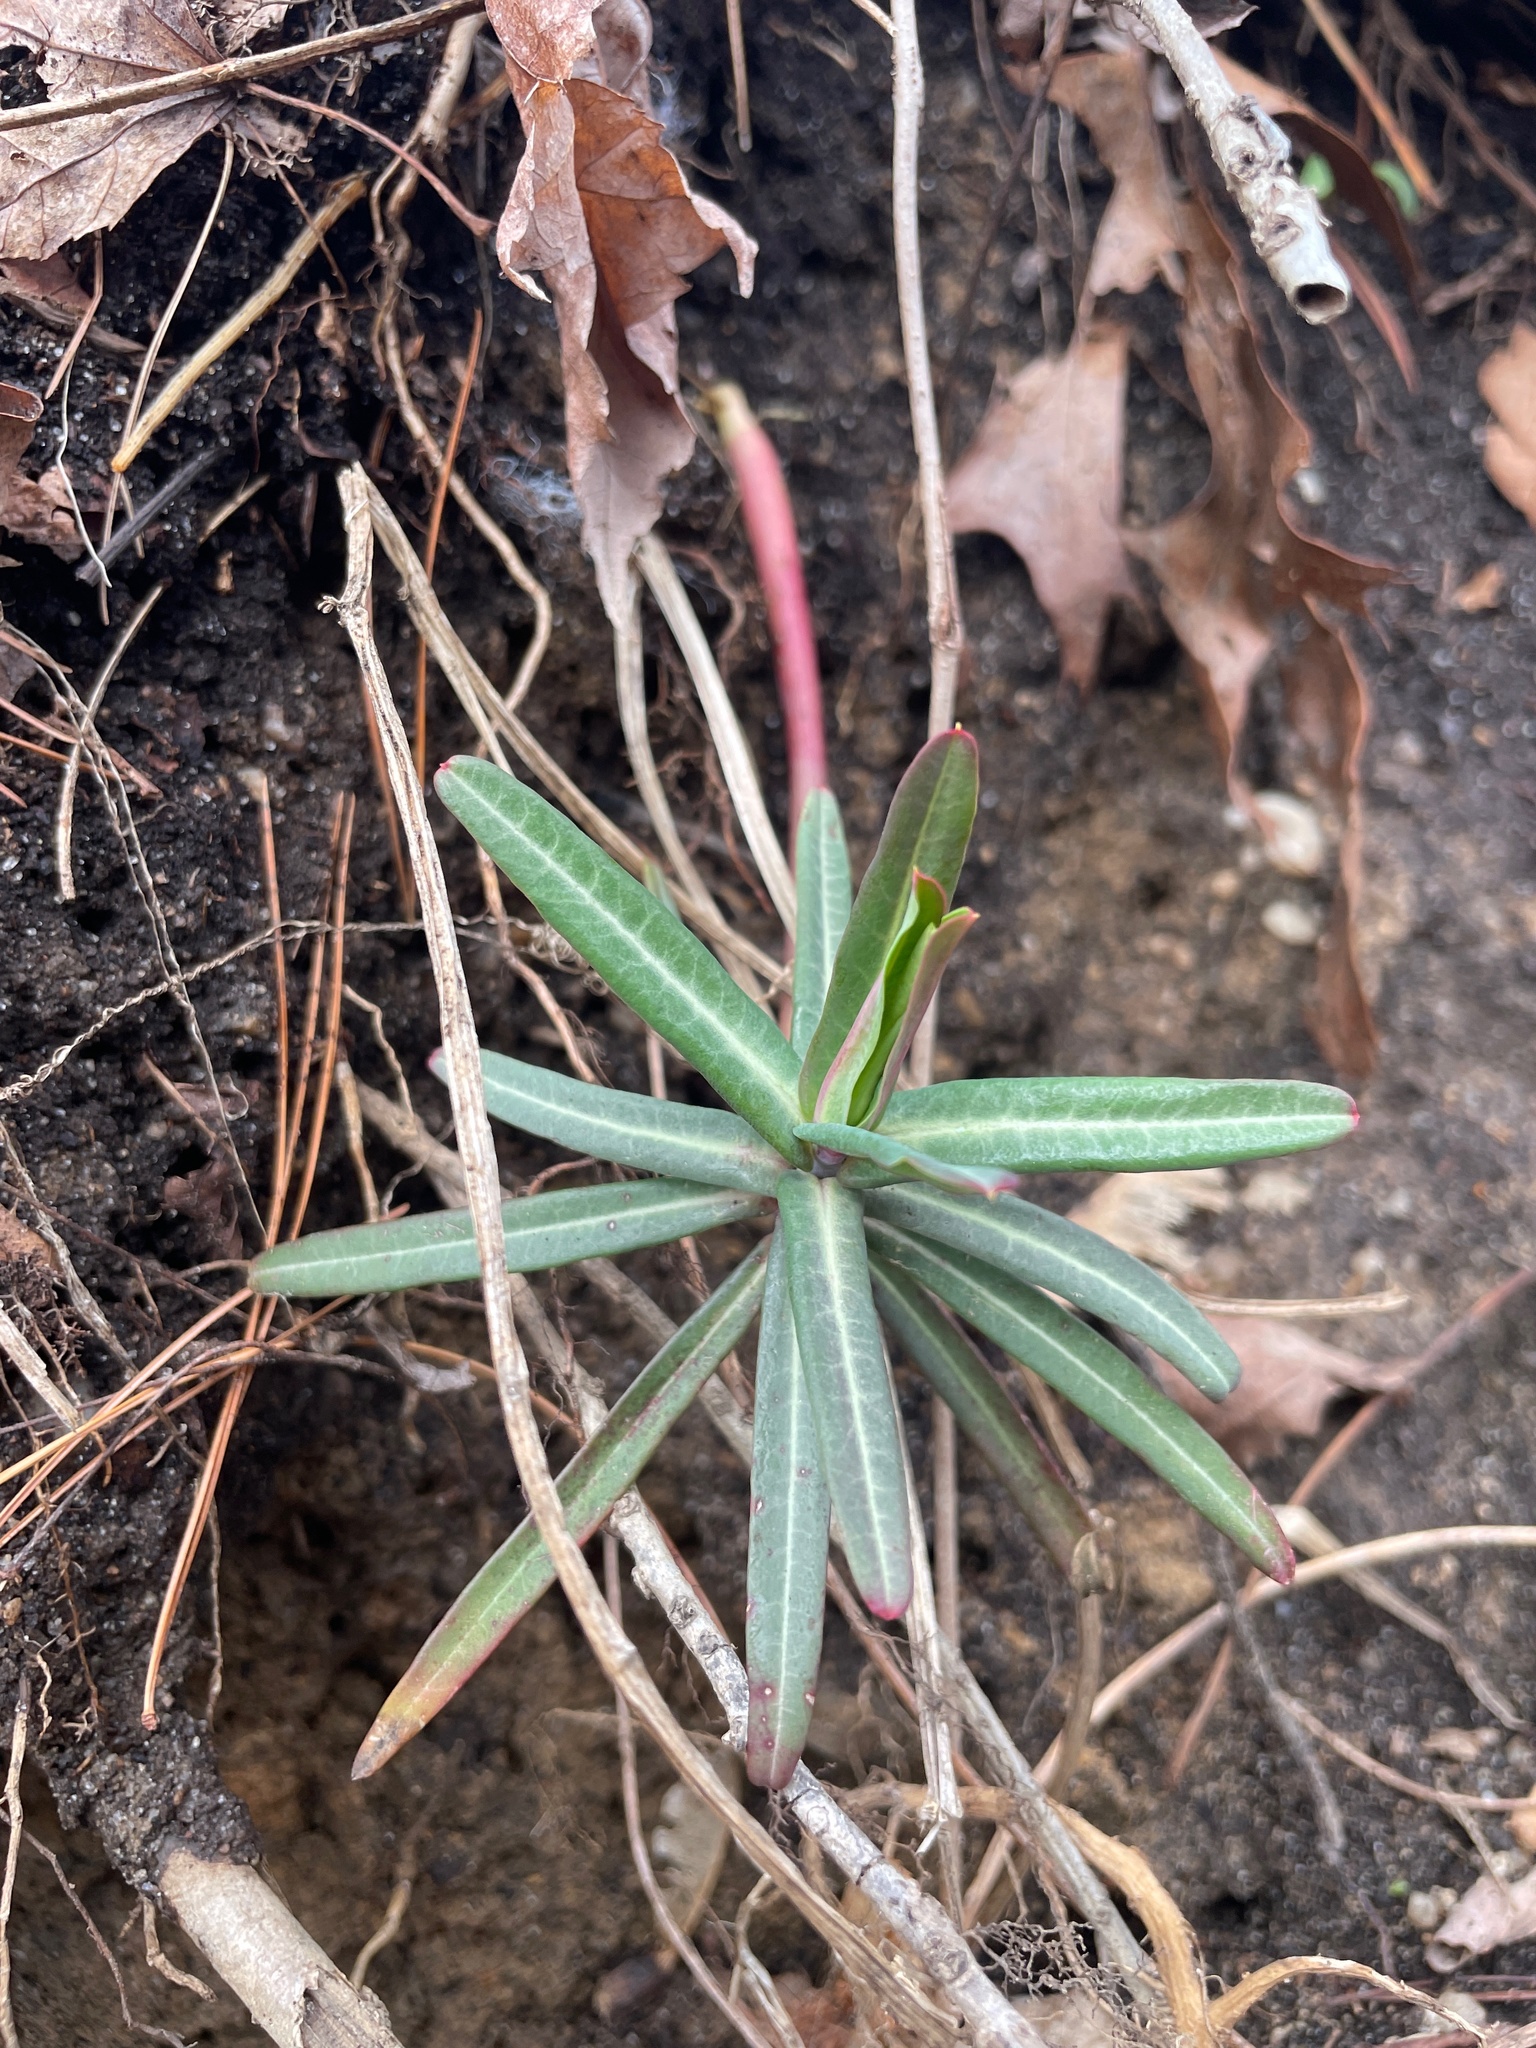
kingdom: Plantae
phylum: Tracheophyta
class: Magnoliopsida
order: Malpighiales
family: Euphorbiaceae
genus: Euphorbia
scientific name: Euphorbia lathyris
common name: Caper spurge
